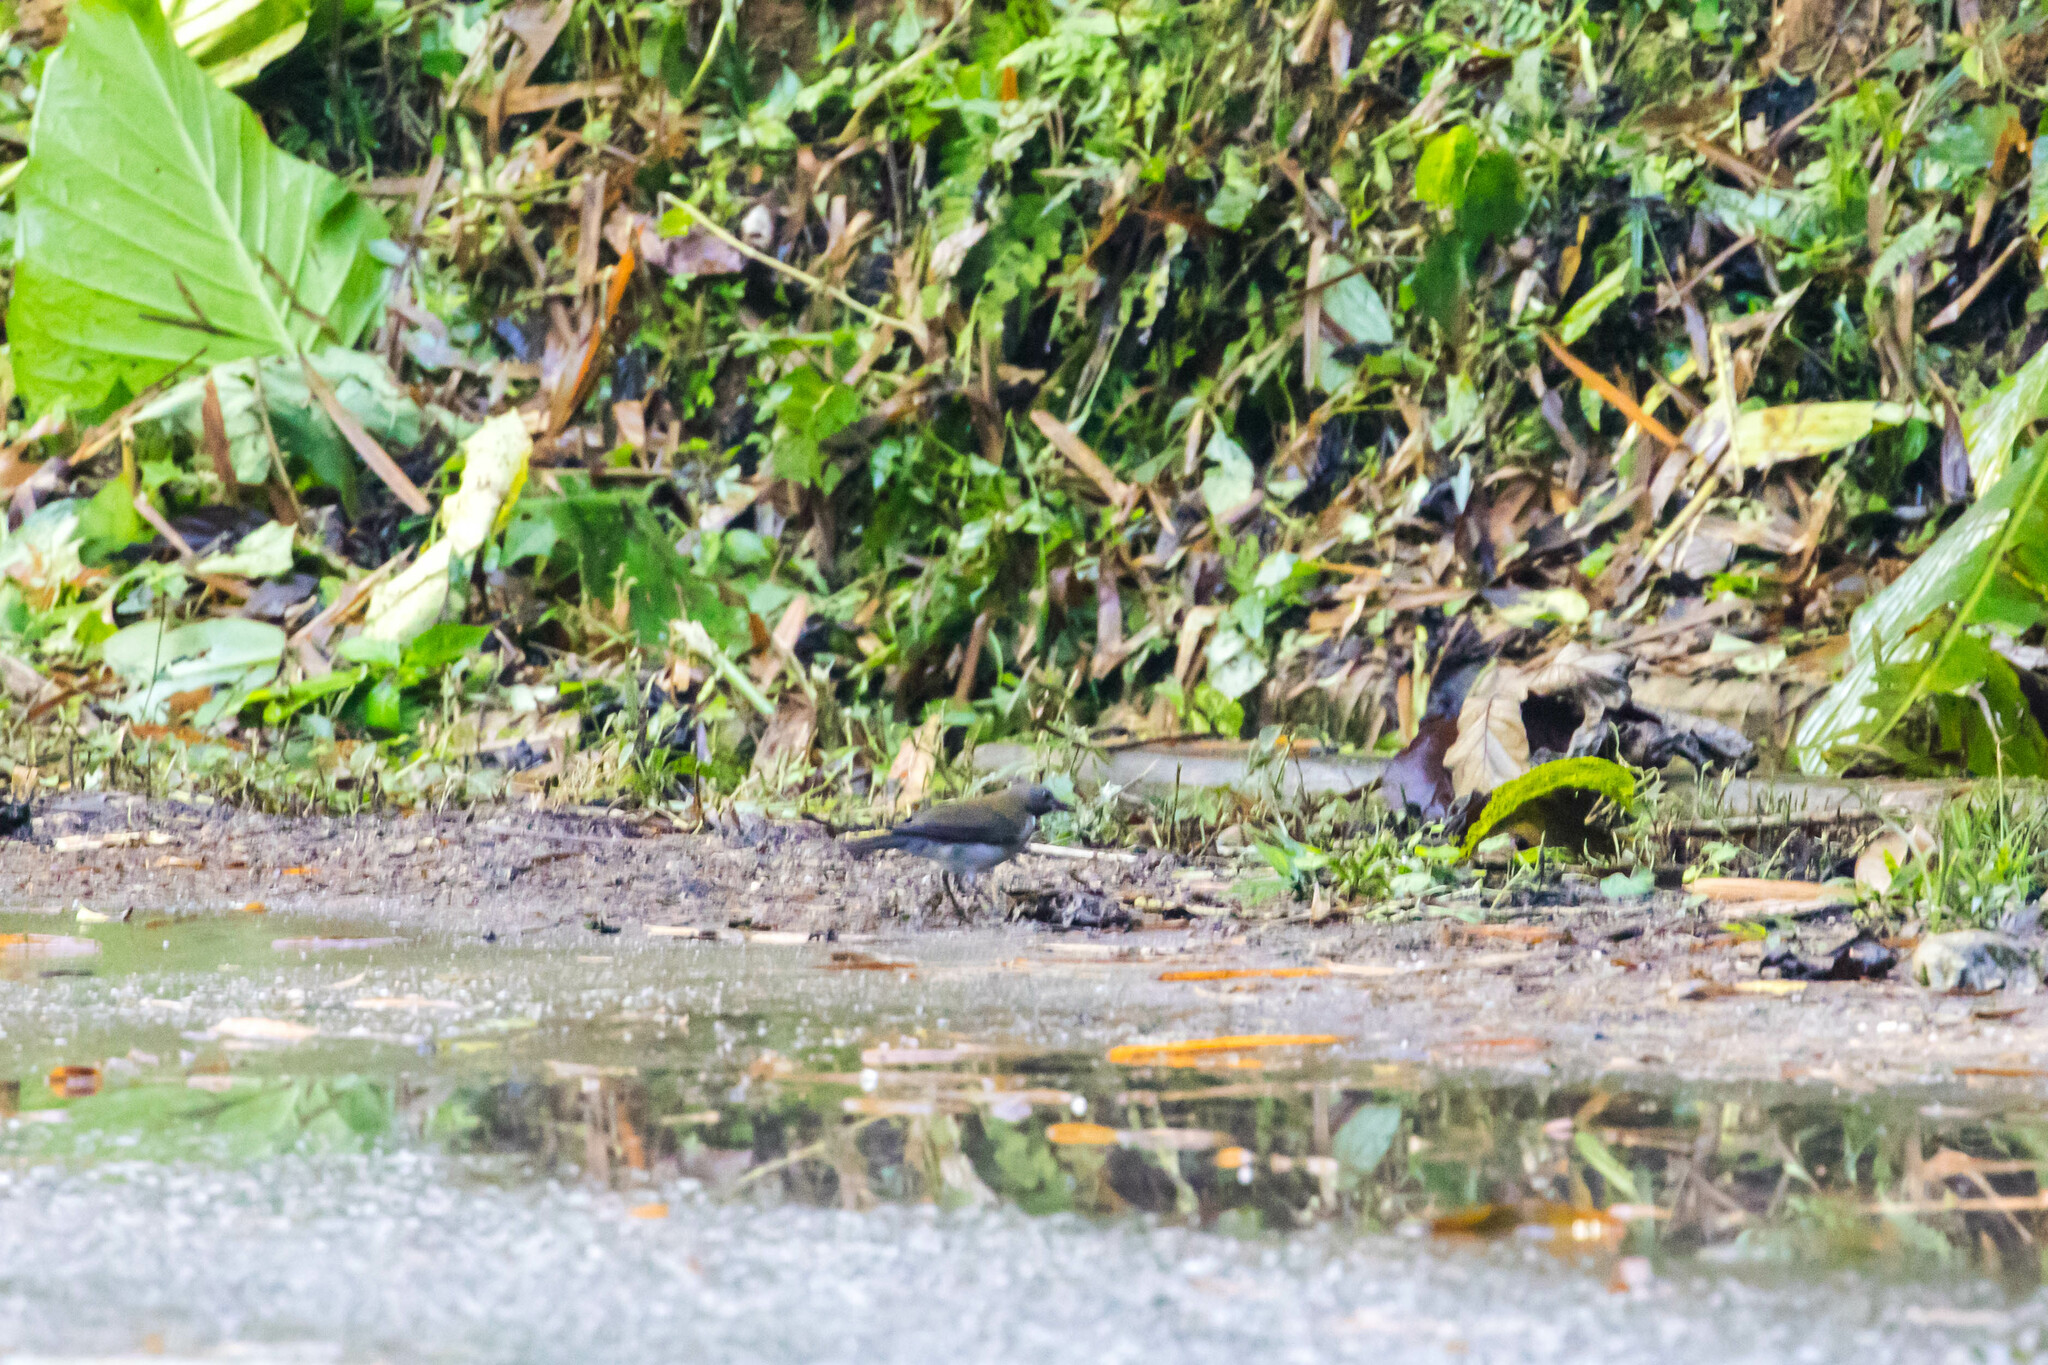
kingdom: Animalia
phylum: Chordata
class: Aves
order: Passeriformes
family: Turdidae
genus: Turdus
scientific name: Turdus albicollis
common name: White-necked thrush
